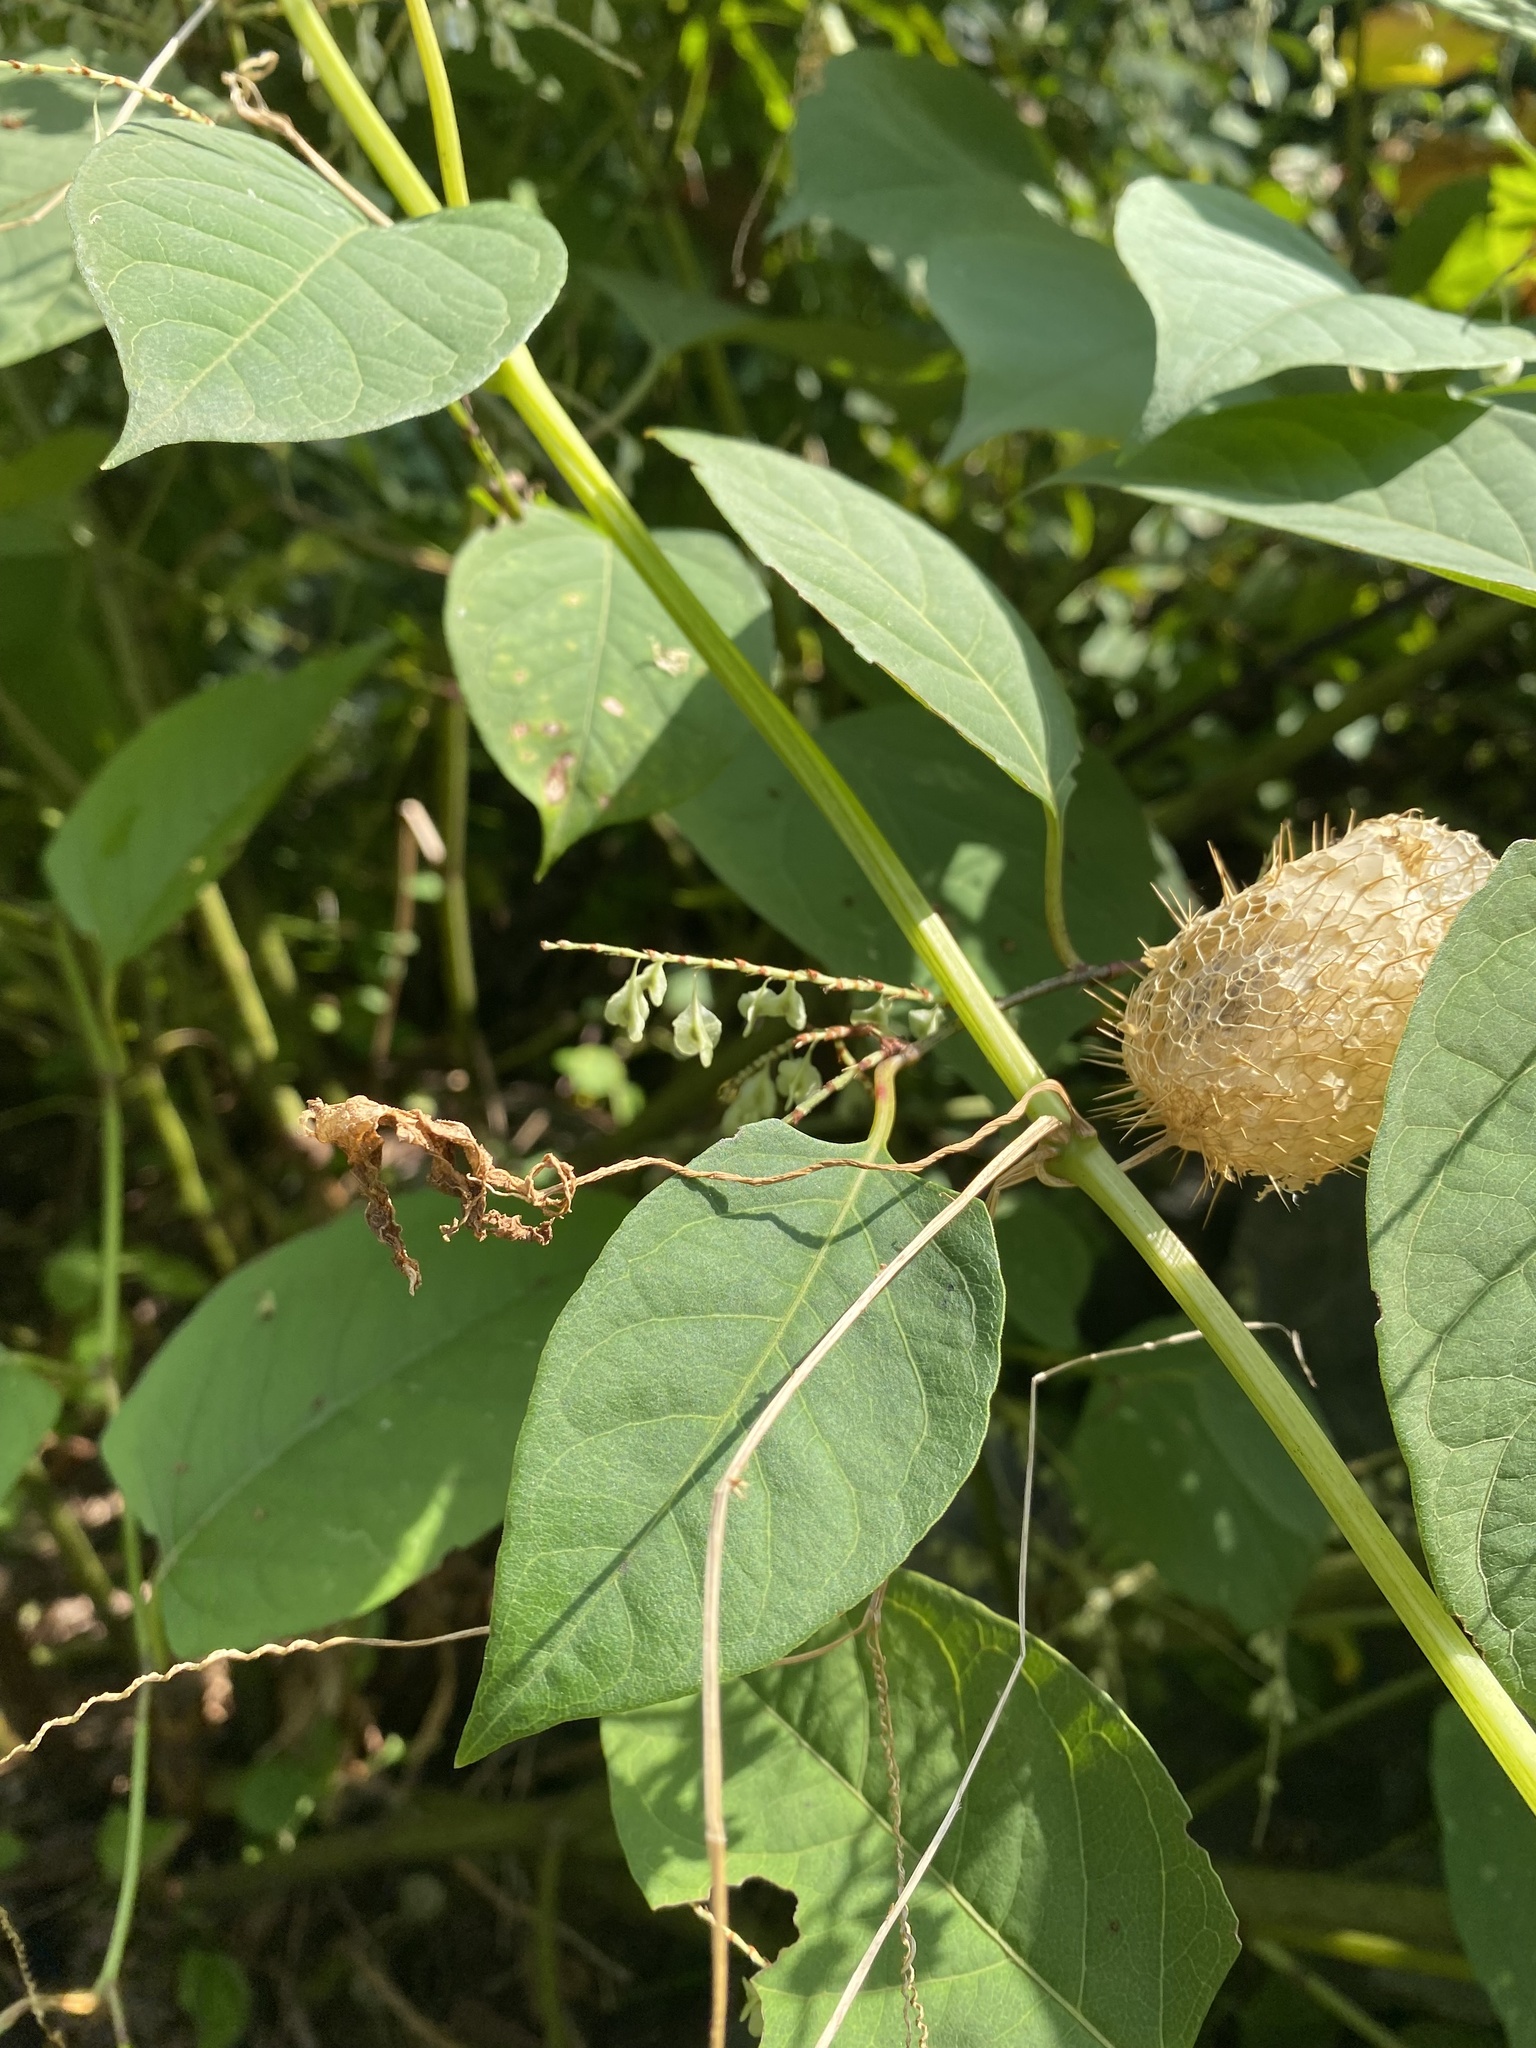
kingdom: Plantae
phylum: Tracheophyta
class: Magnoliopsida
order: Cucurbitales
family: Cucurbitaceae
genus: Echinocystis
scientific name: Echinocystis lobata
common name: Wild cucumber
